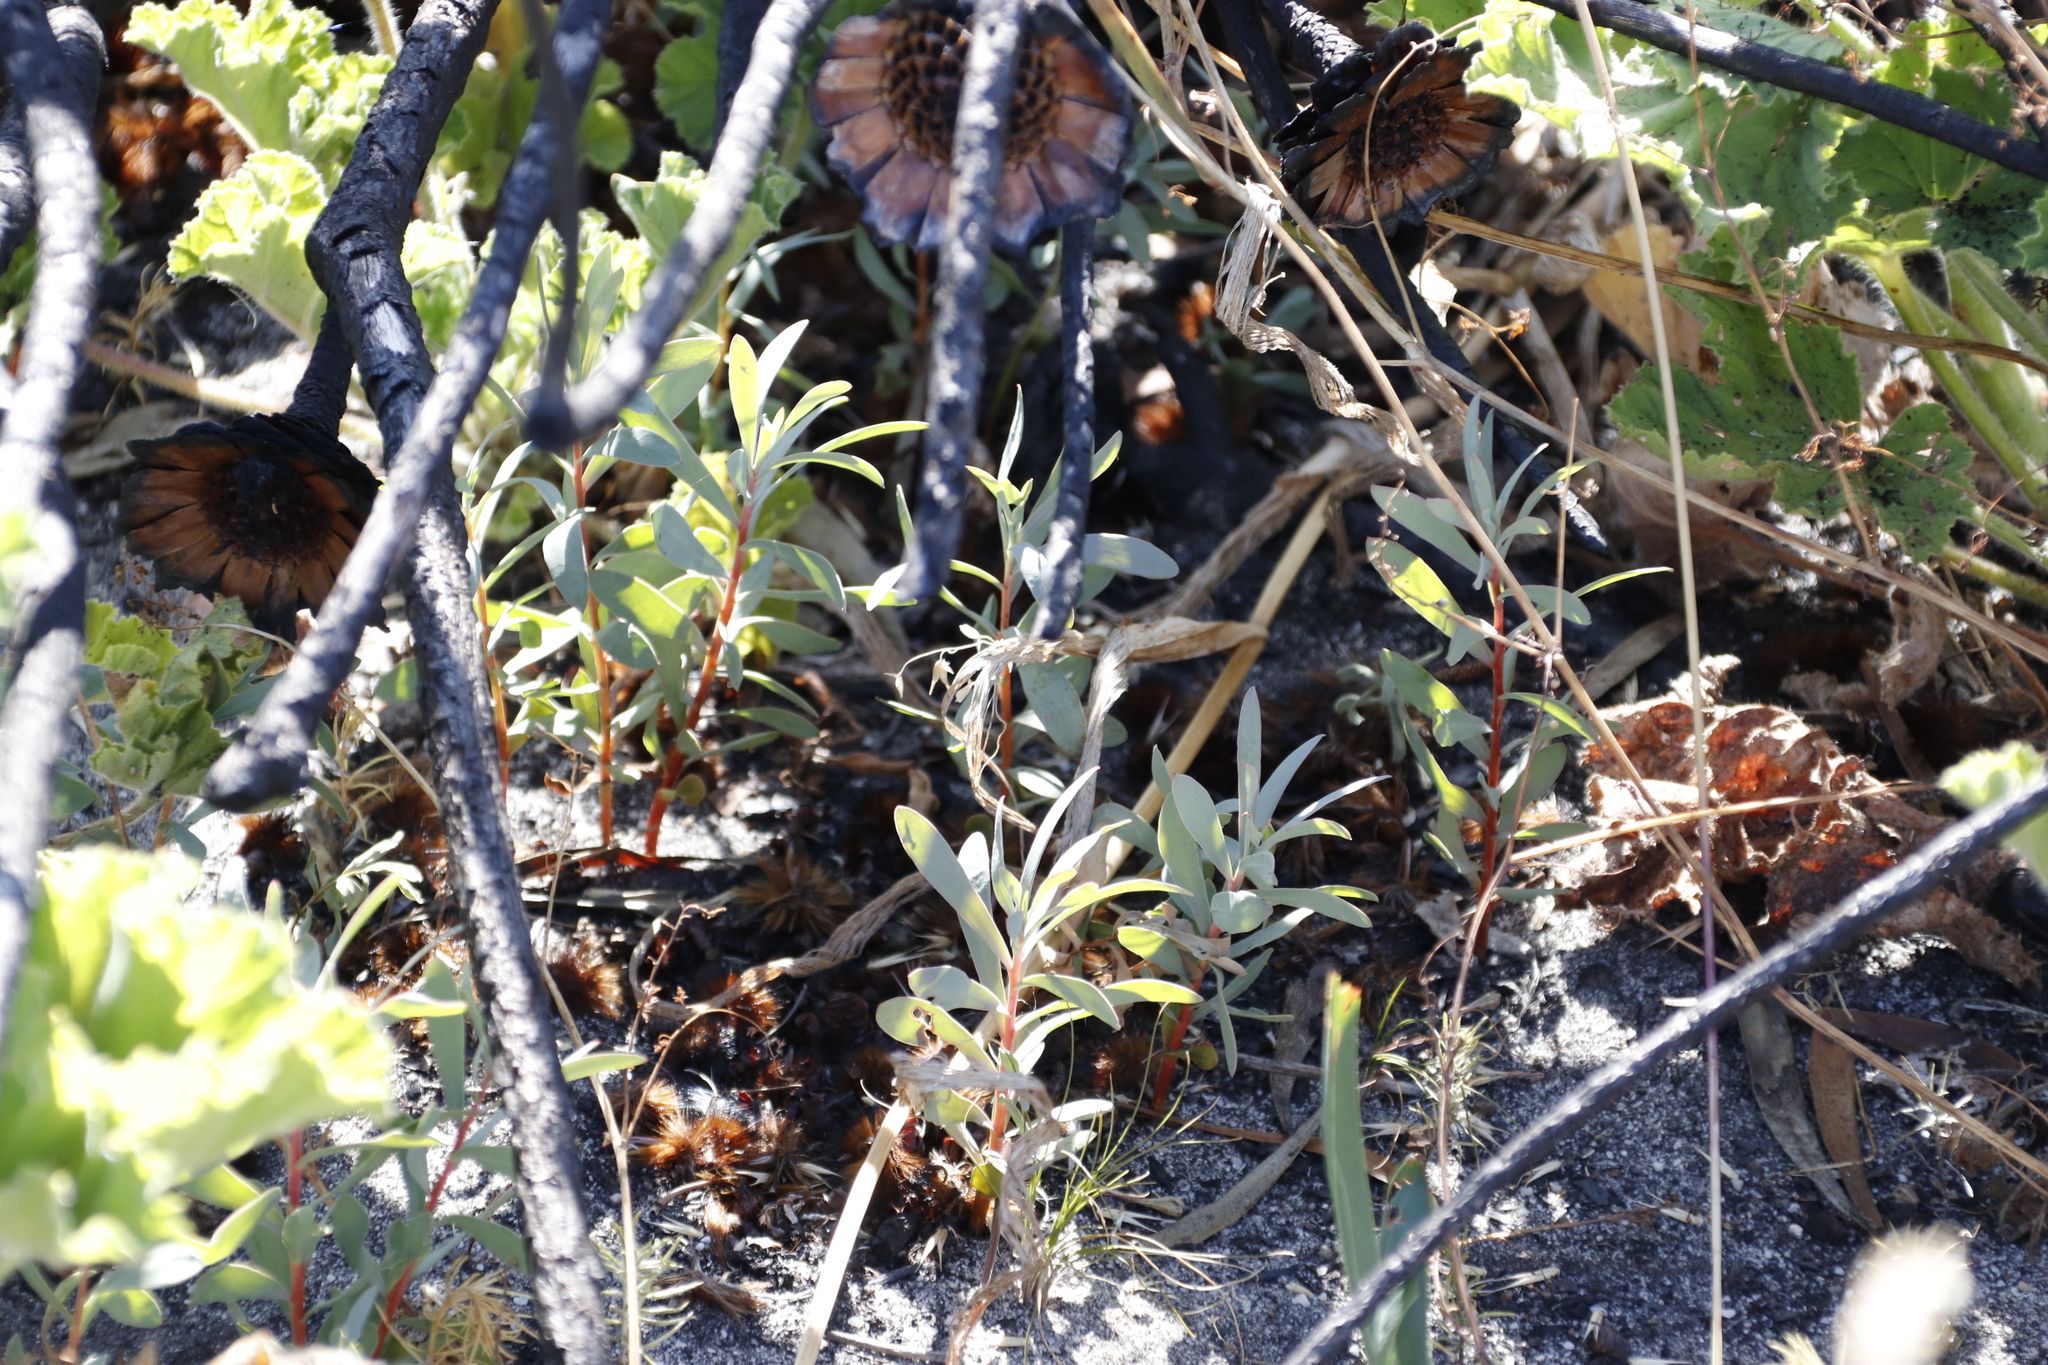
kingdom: Plantae
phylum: Tracheophyta
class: Magnoliopsida
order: Proteales
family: Proteaceae
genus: Protea
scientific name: Protea repens
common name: Sugarbush
